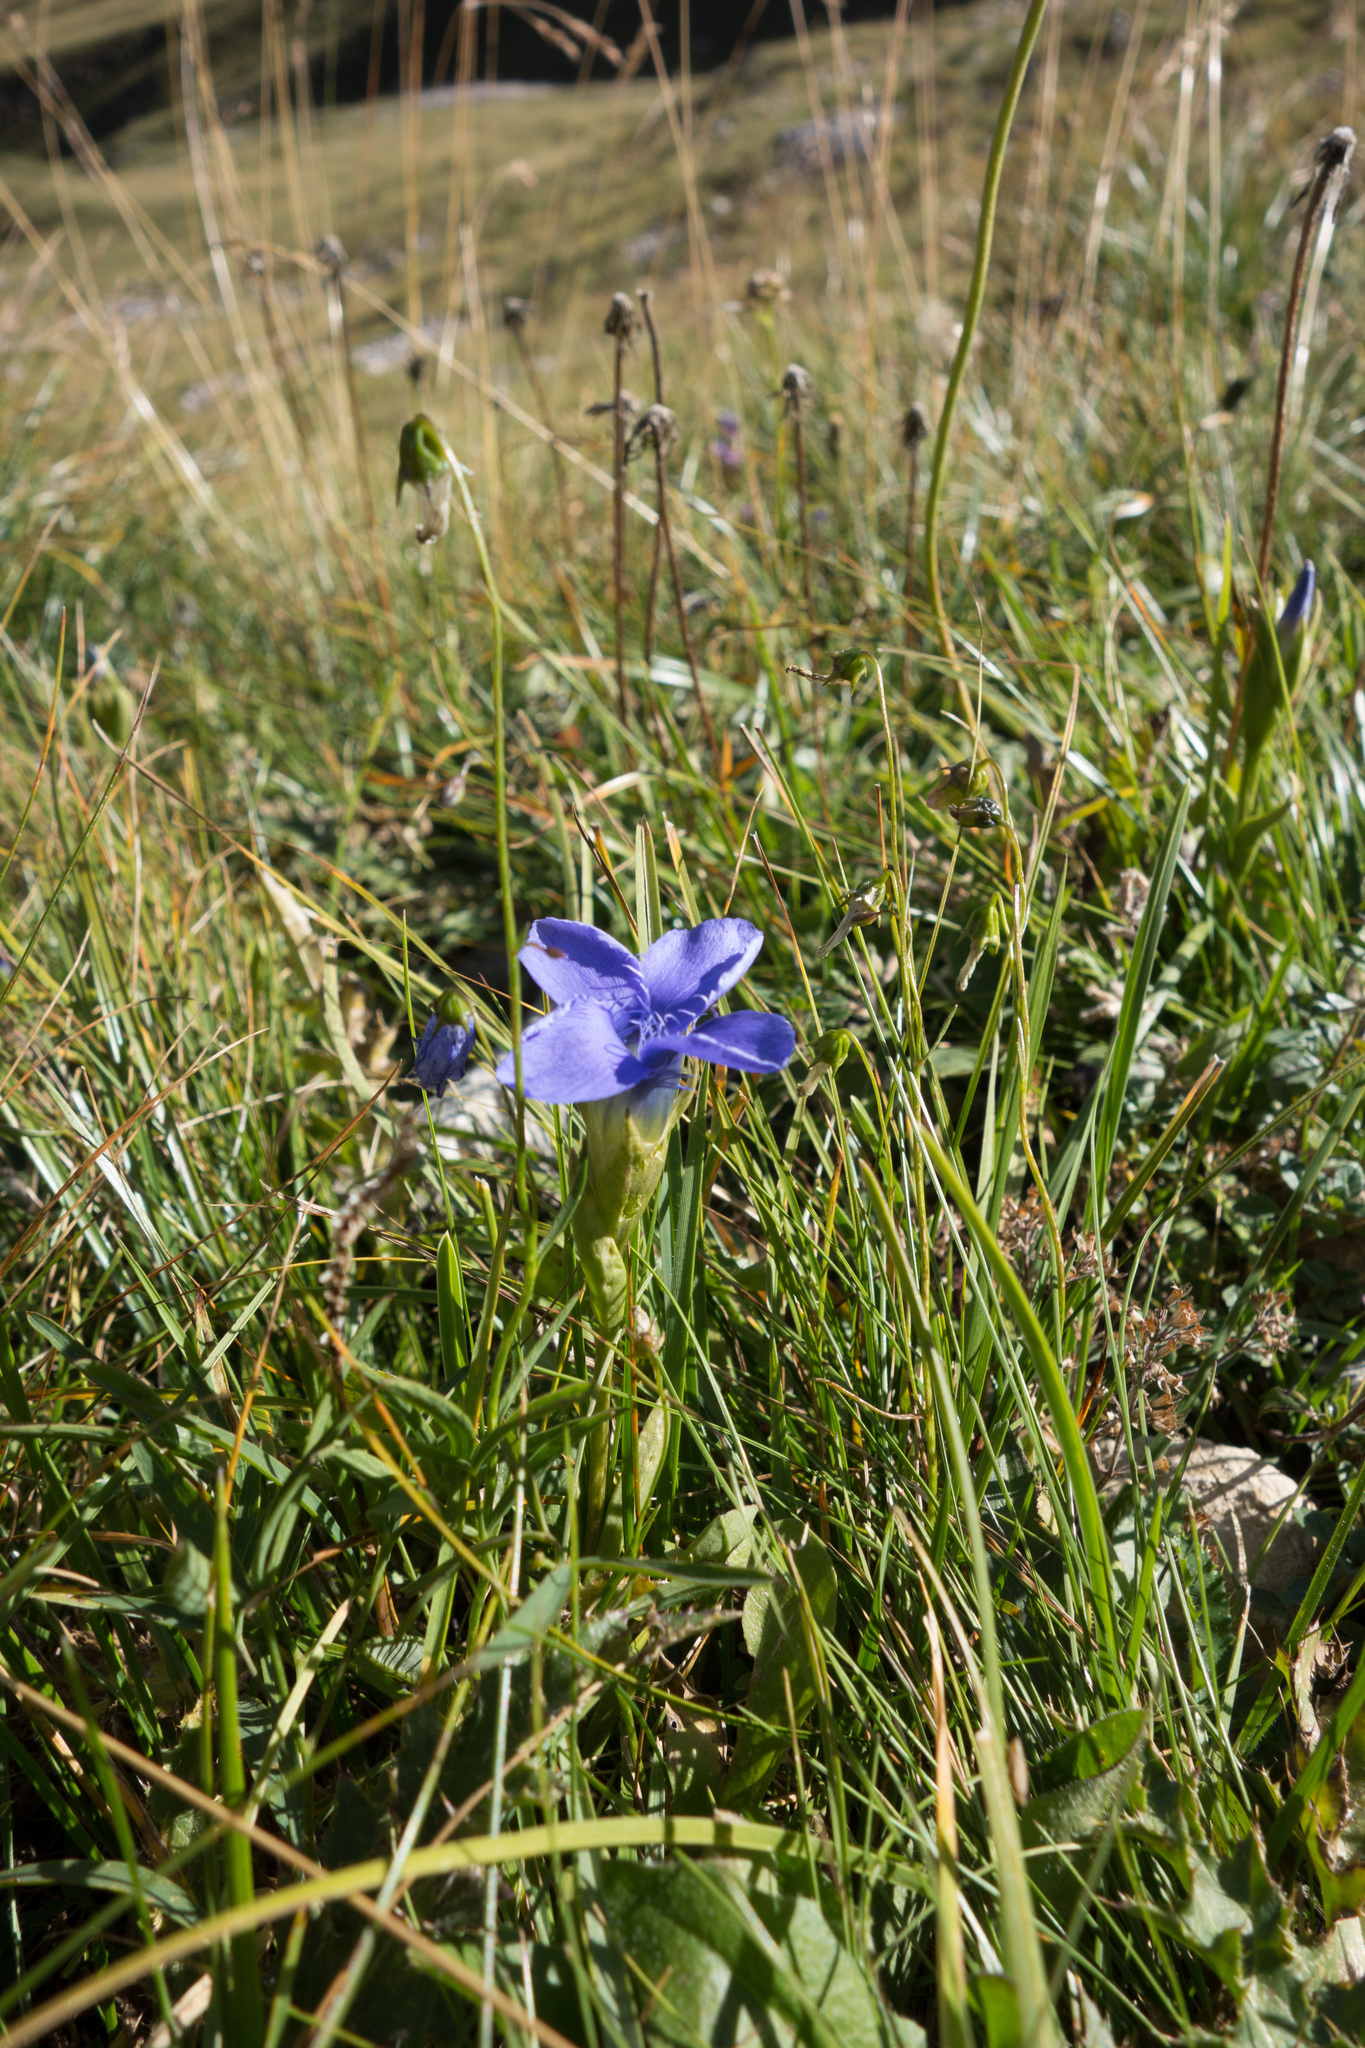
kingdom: Plantae
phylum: Tracheophyta
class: Magnoliopsida
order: Gentianales
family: Gentianaceae
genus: Gentianopsis
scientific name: Gentianopsis ciliata
